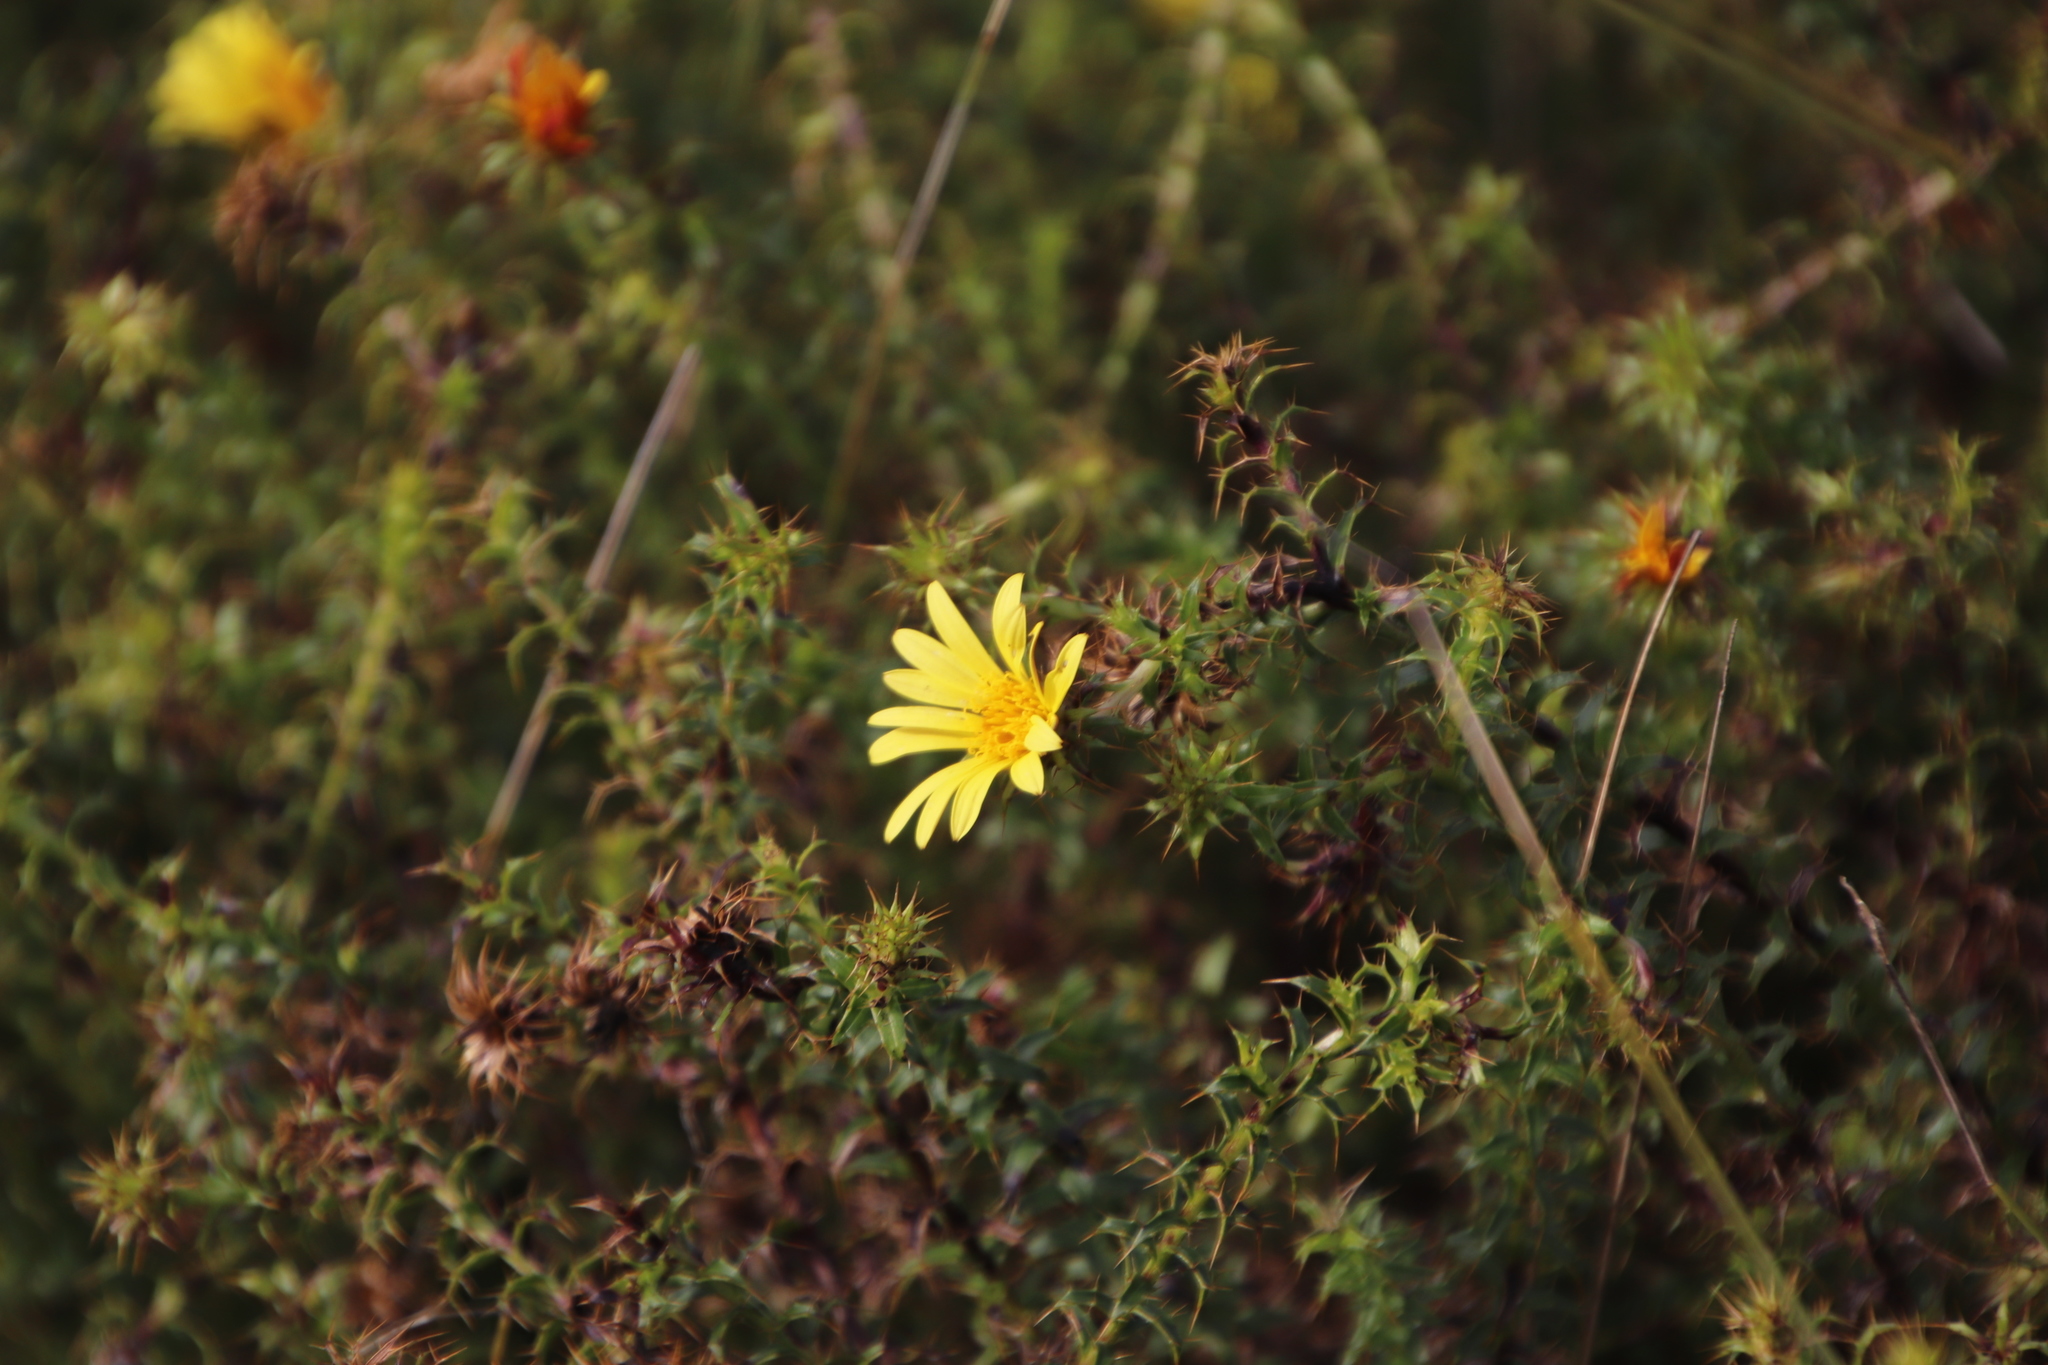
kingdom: Plantae
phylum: Tracheophyta
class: Magnoliopsida
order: Asterales
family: Asteraceae
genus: Cullumia
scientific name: Cullumia setosa
